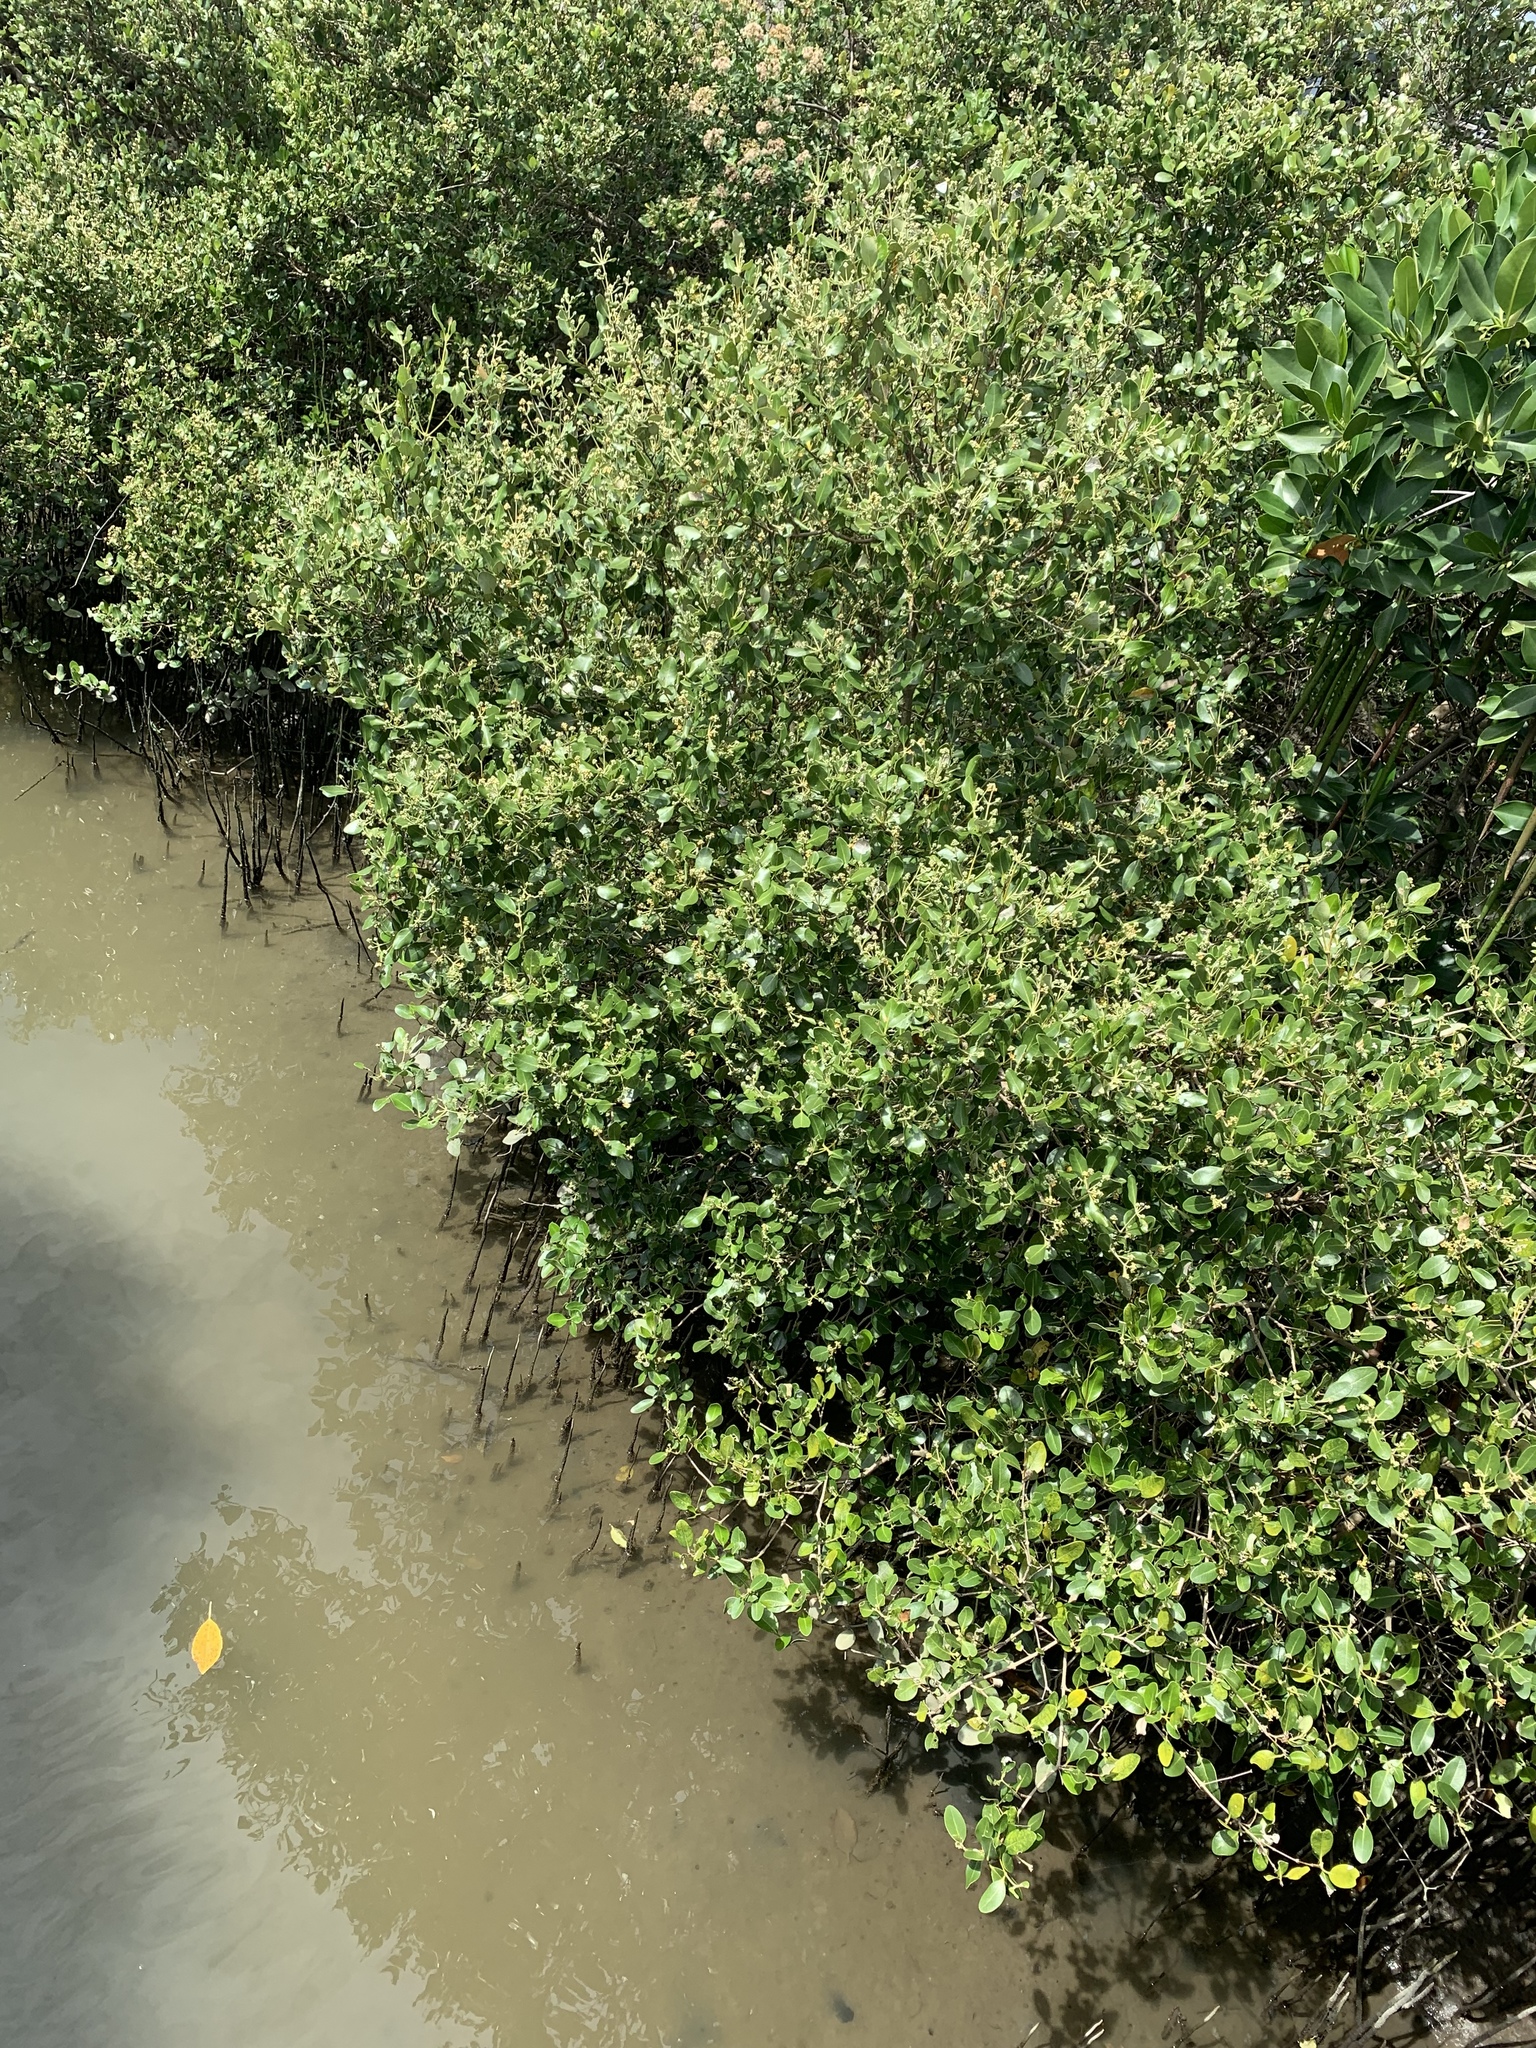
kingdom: Plantae
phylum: Tracheophyta
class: Magnoliopsida
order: Myrtales
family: Myrtaceae
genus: Psidium
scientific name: Psidium guajava
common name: Guava
